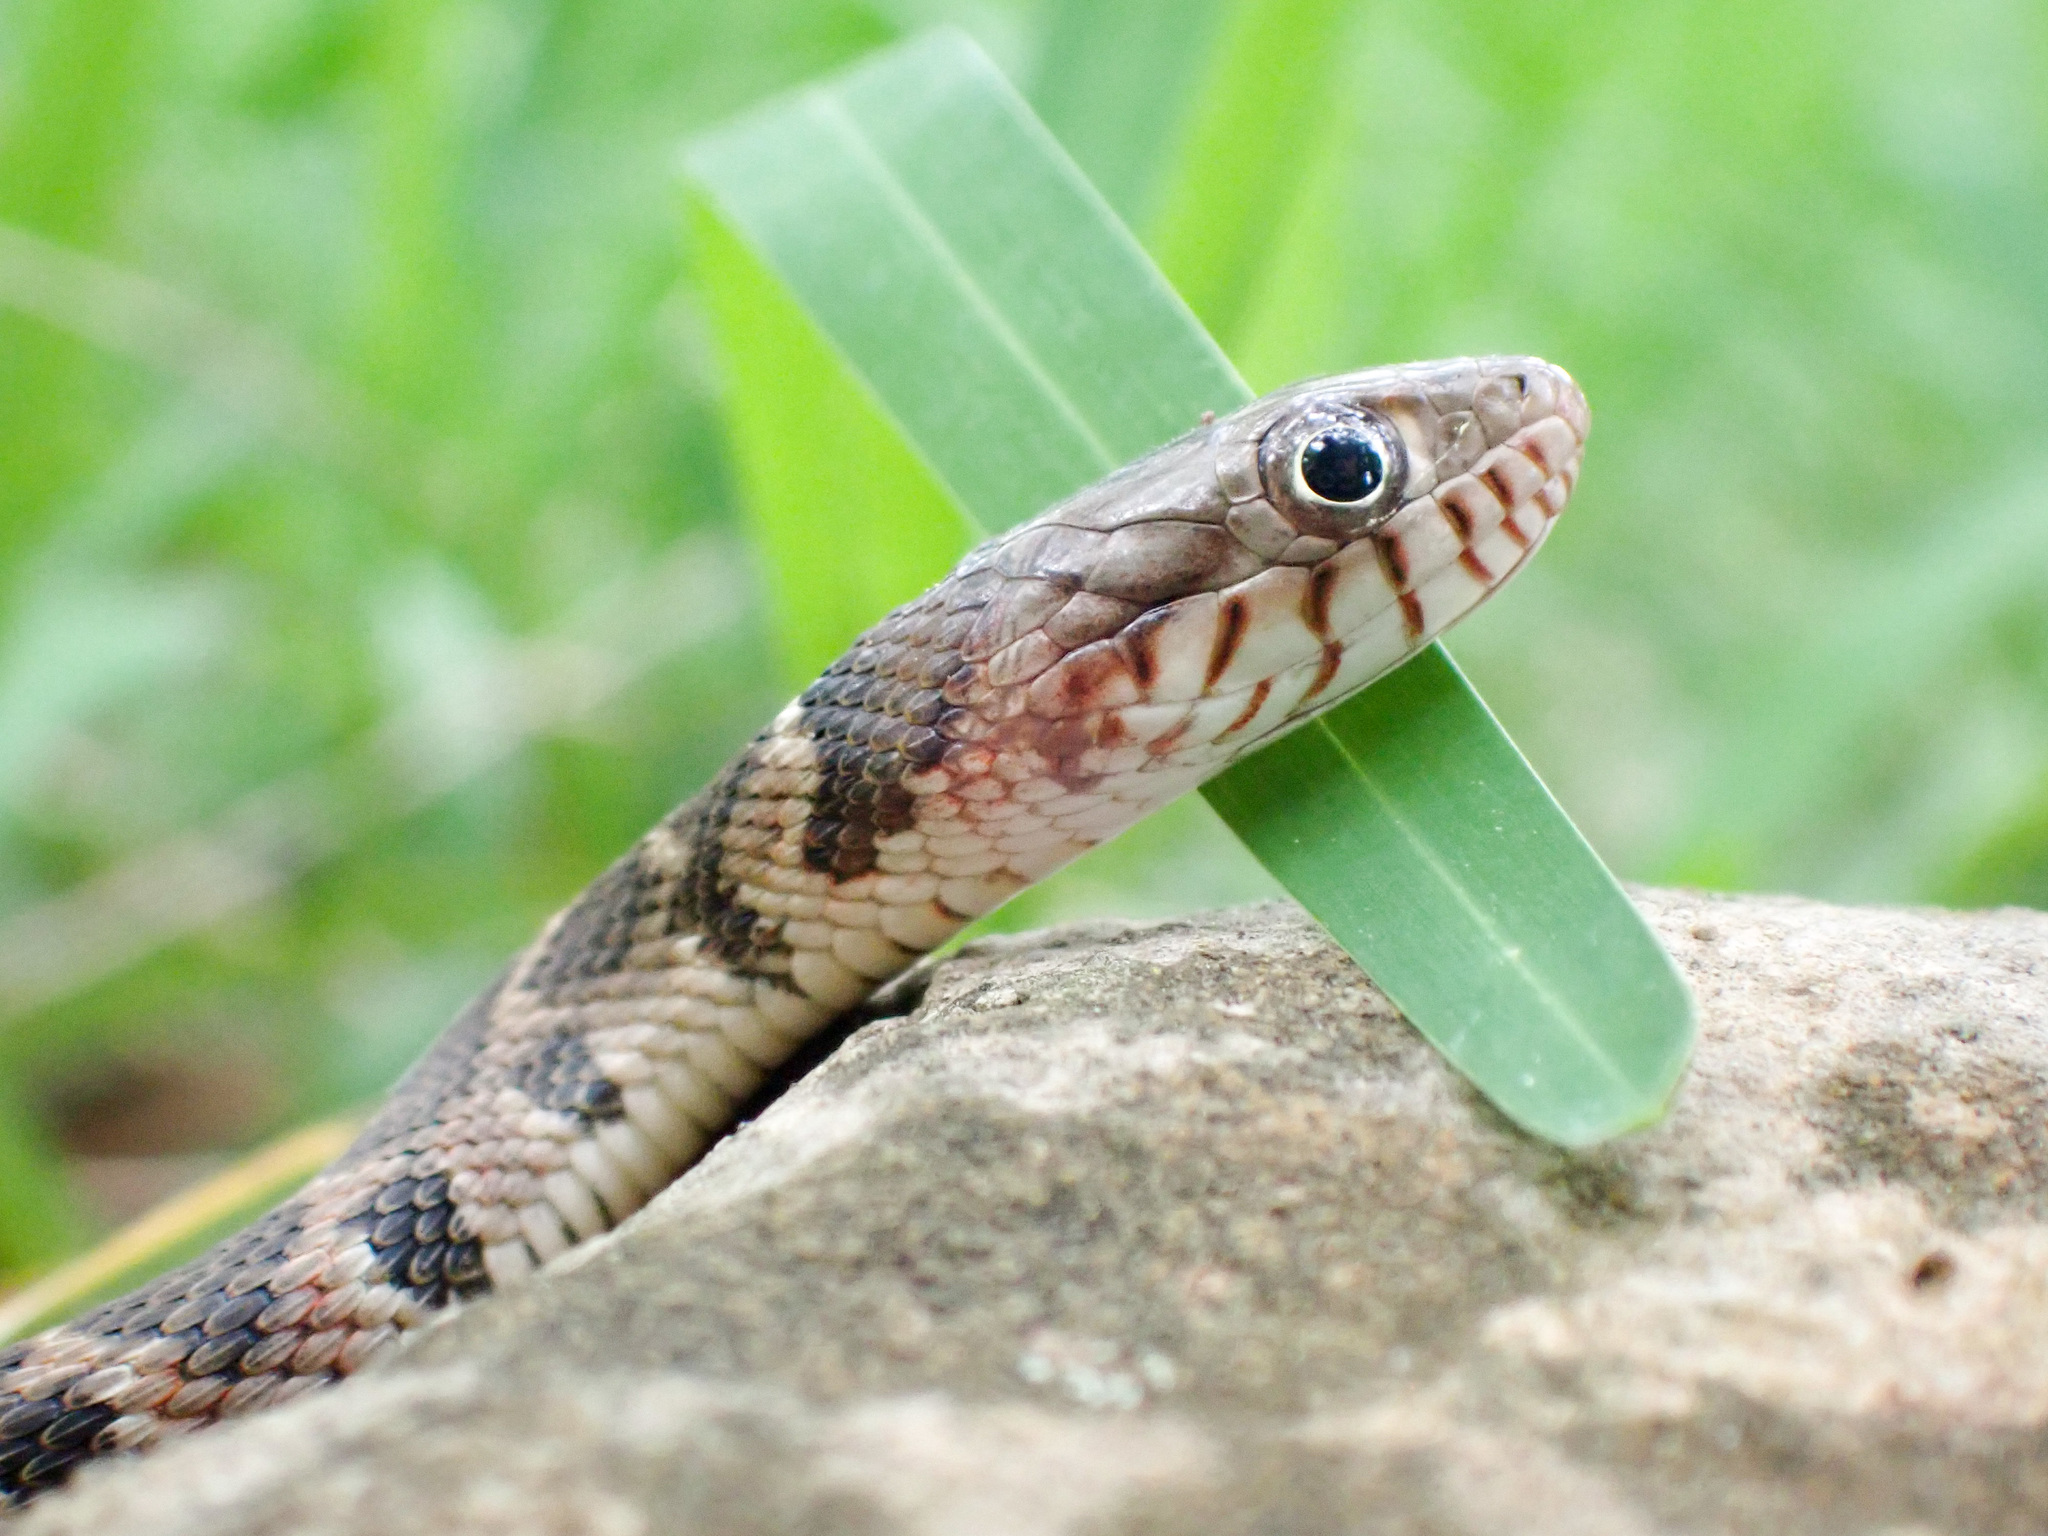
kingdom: Animalia
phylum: Chordata
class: Squamata
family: Colubridae
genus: Nerodia
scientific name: Nerodia erythrogaster
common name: Plainbelly water snake
